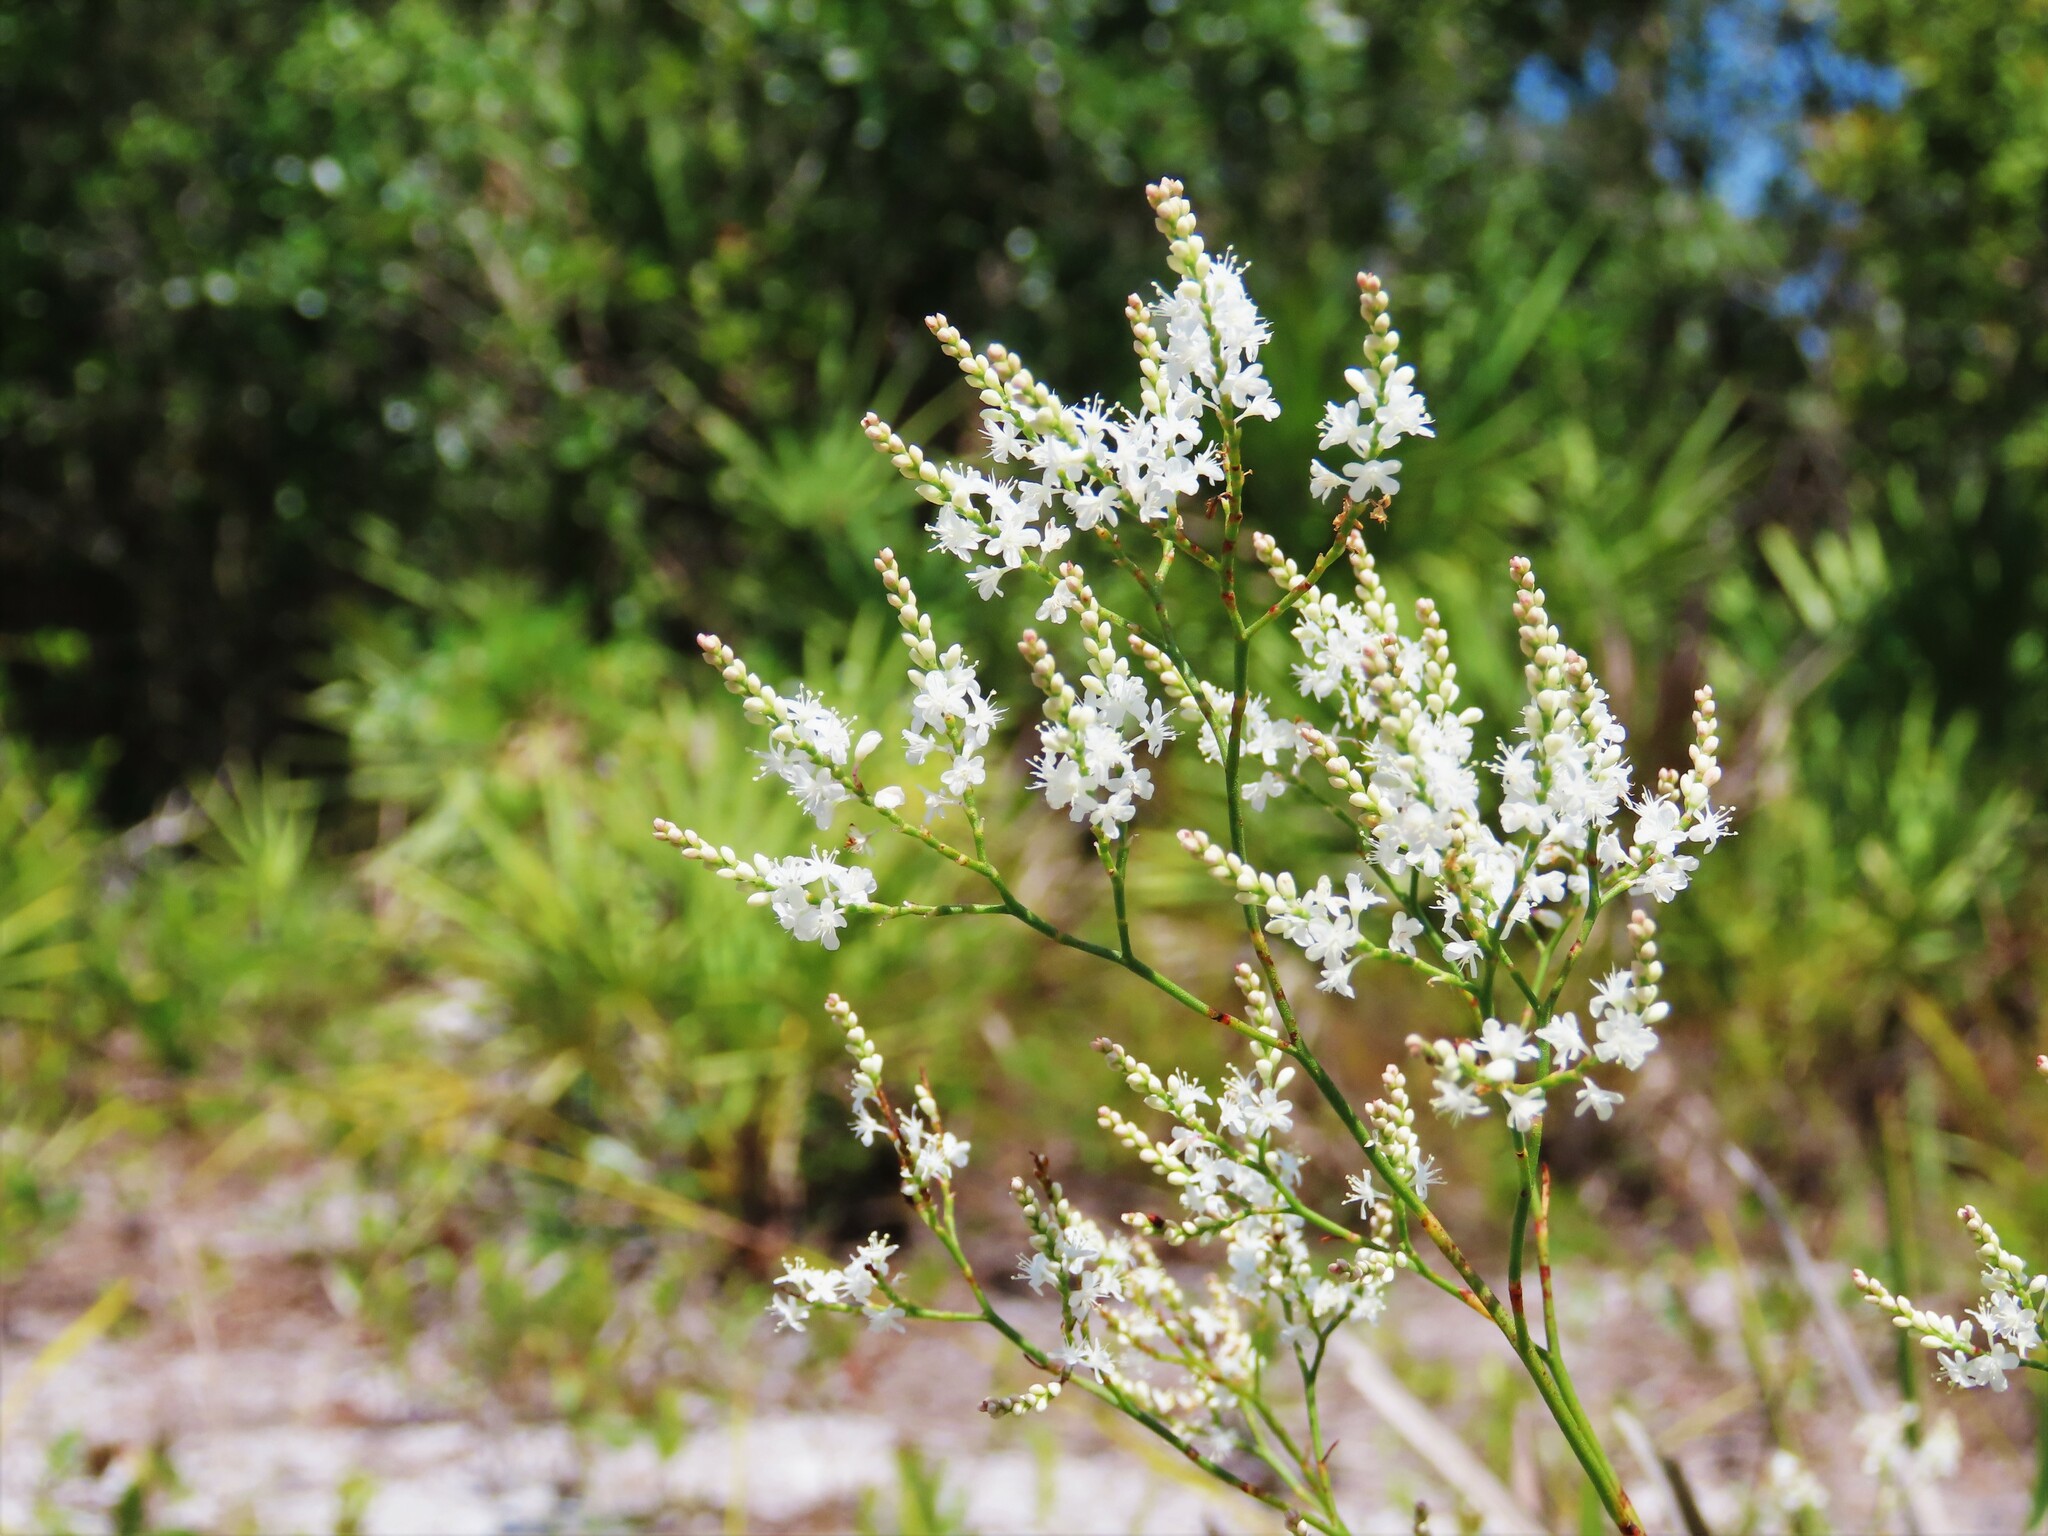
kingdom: Plantae
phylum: Tracheophyta
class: Magnoliopsida
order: Caryophyllales
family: Polygonaceae
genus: Polygonella
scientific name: Polygonella polygama
